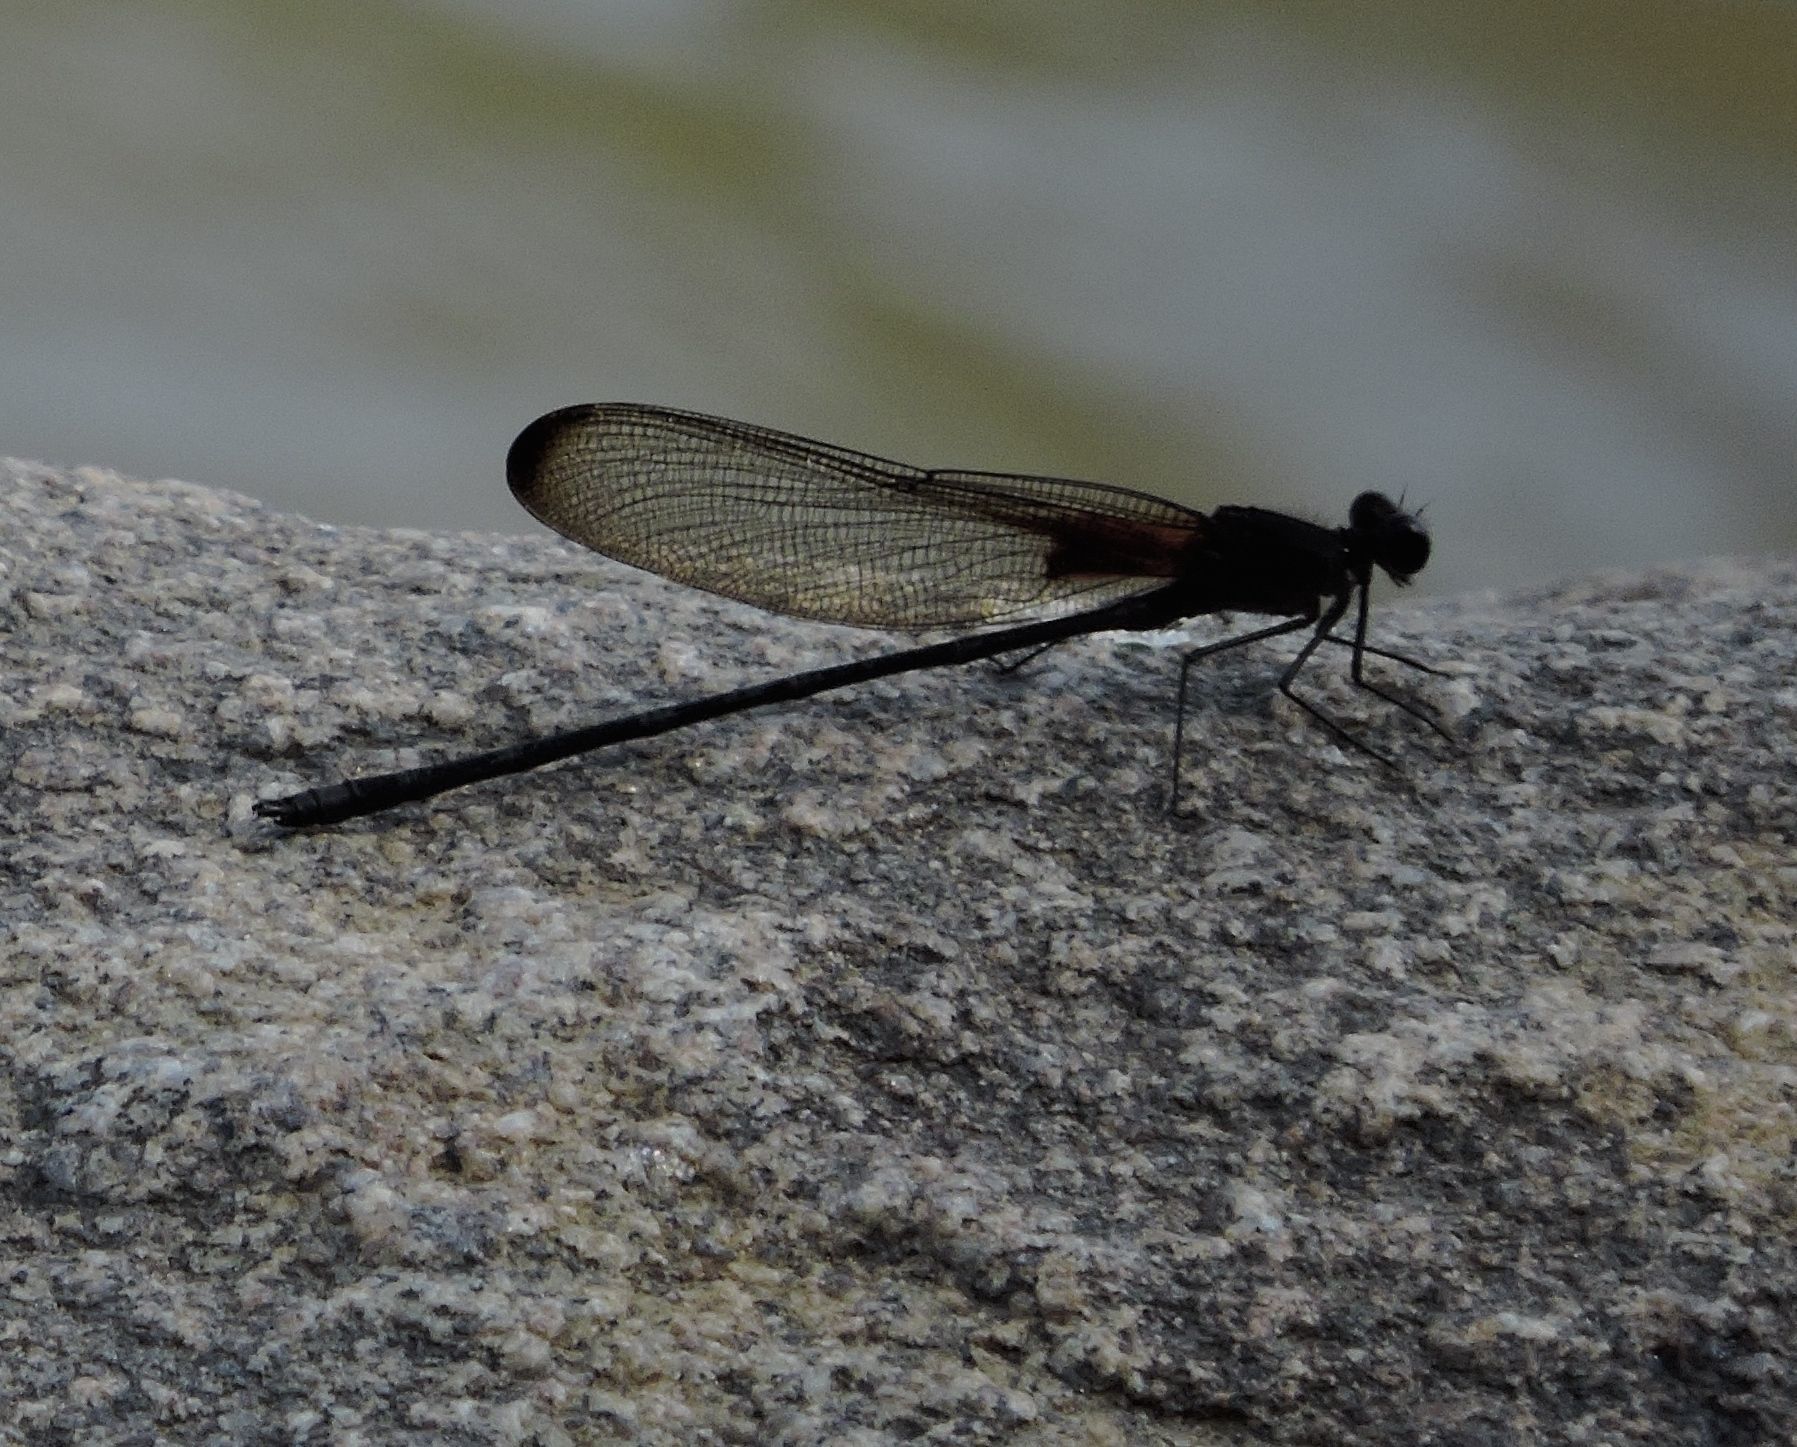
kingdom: Animalia
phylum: Arthropoda
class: Insecta
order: Odonata
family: Calopterygidae
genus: Hetaerina
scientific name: Hetaerina titia
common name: Smoky rubyspot
